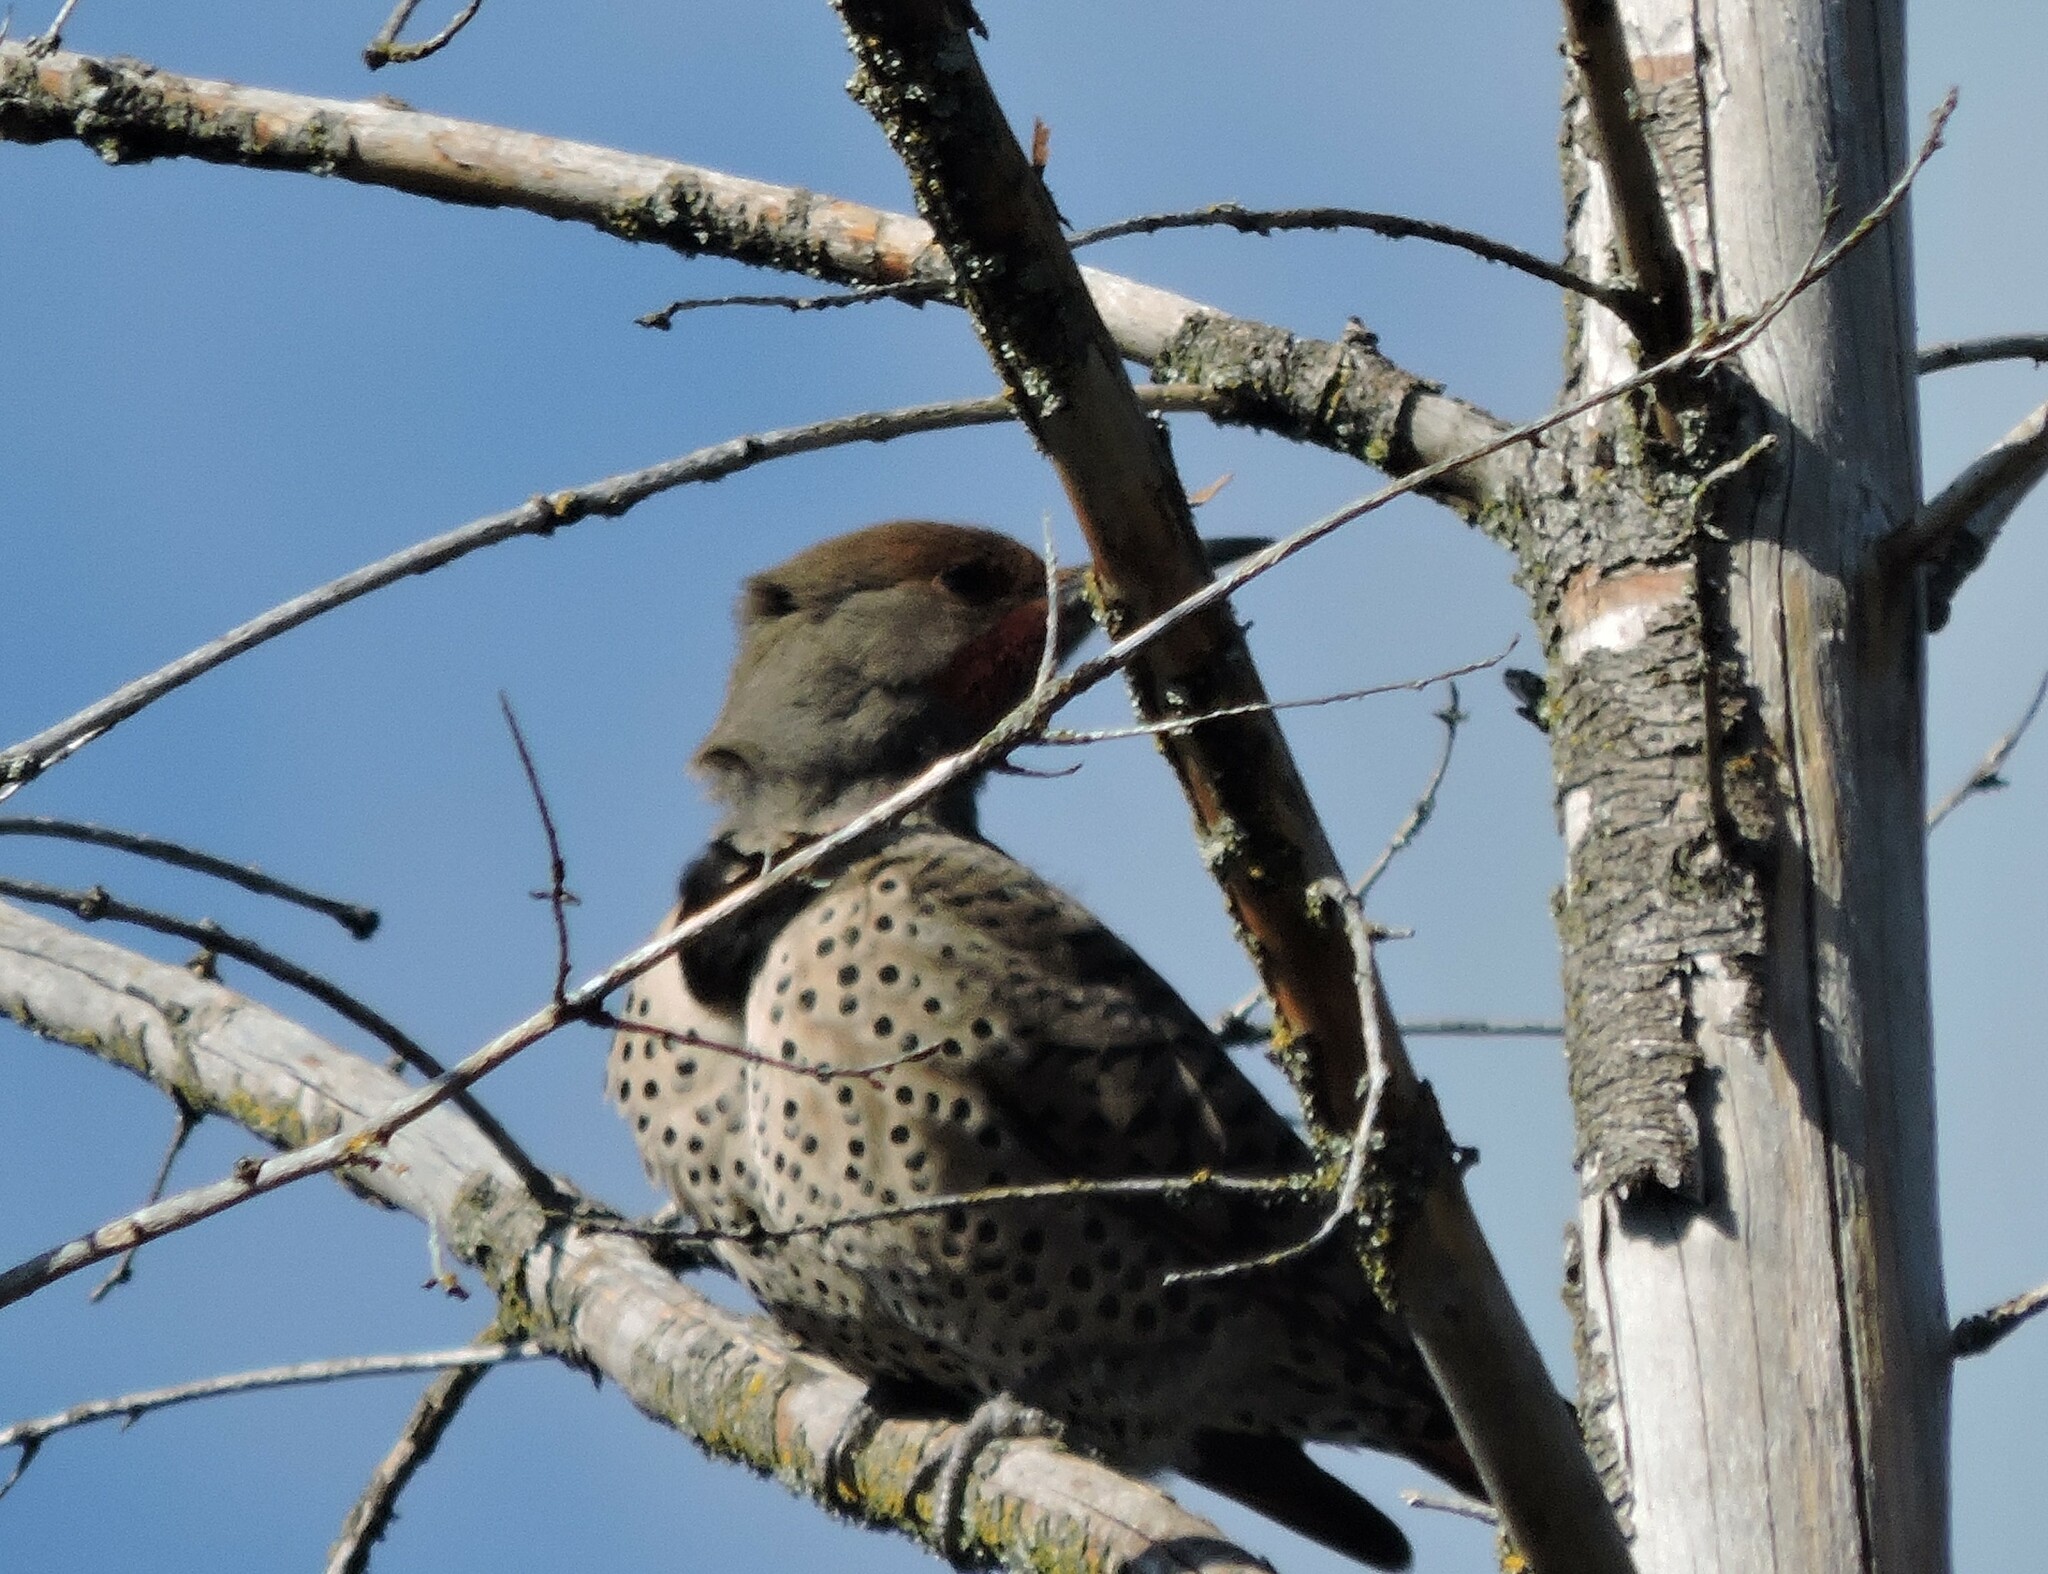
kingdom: Animalia
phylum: Chordata
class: Aves
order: Piciformes
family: Picidae
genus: Colaptes
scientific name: Colaptes auratus
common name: Northern flicker
